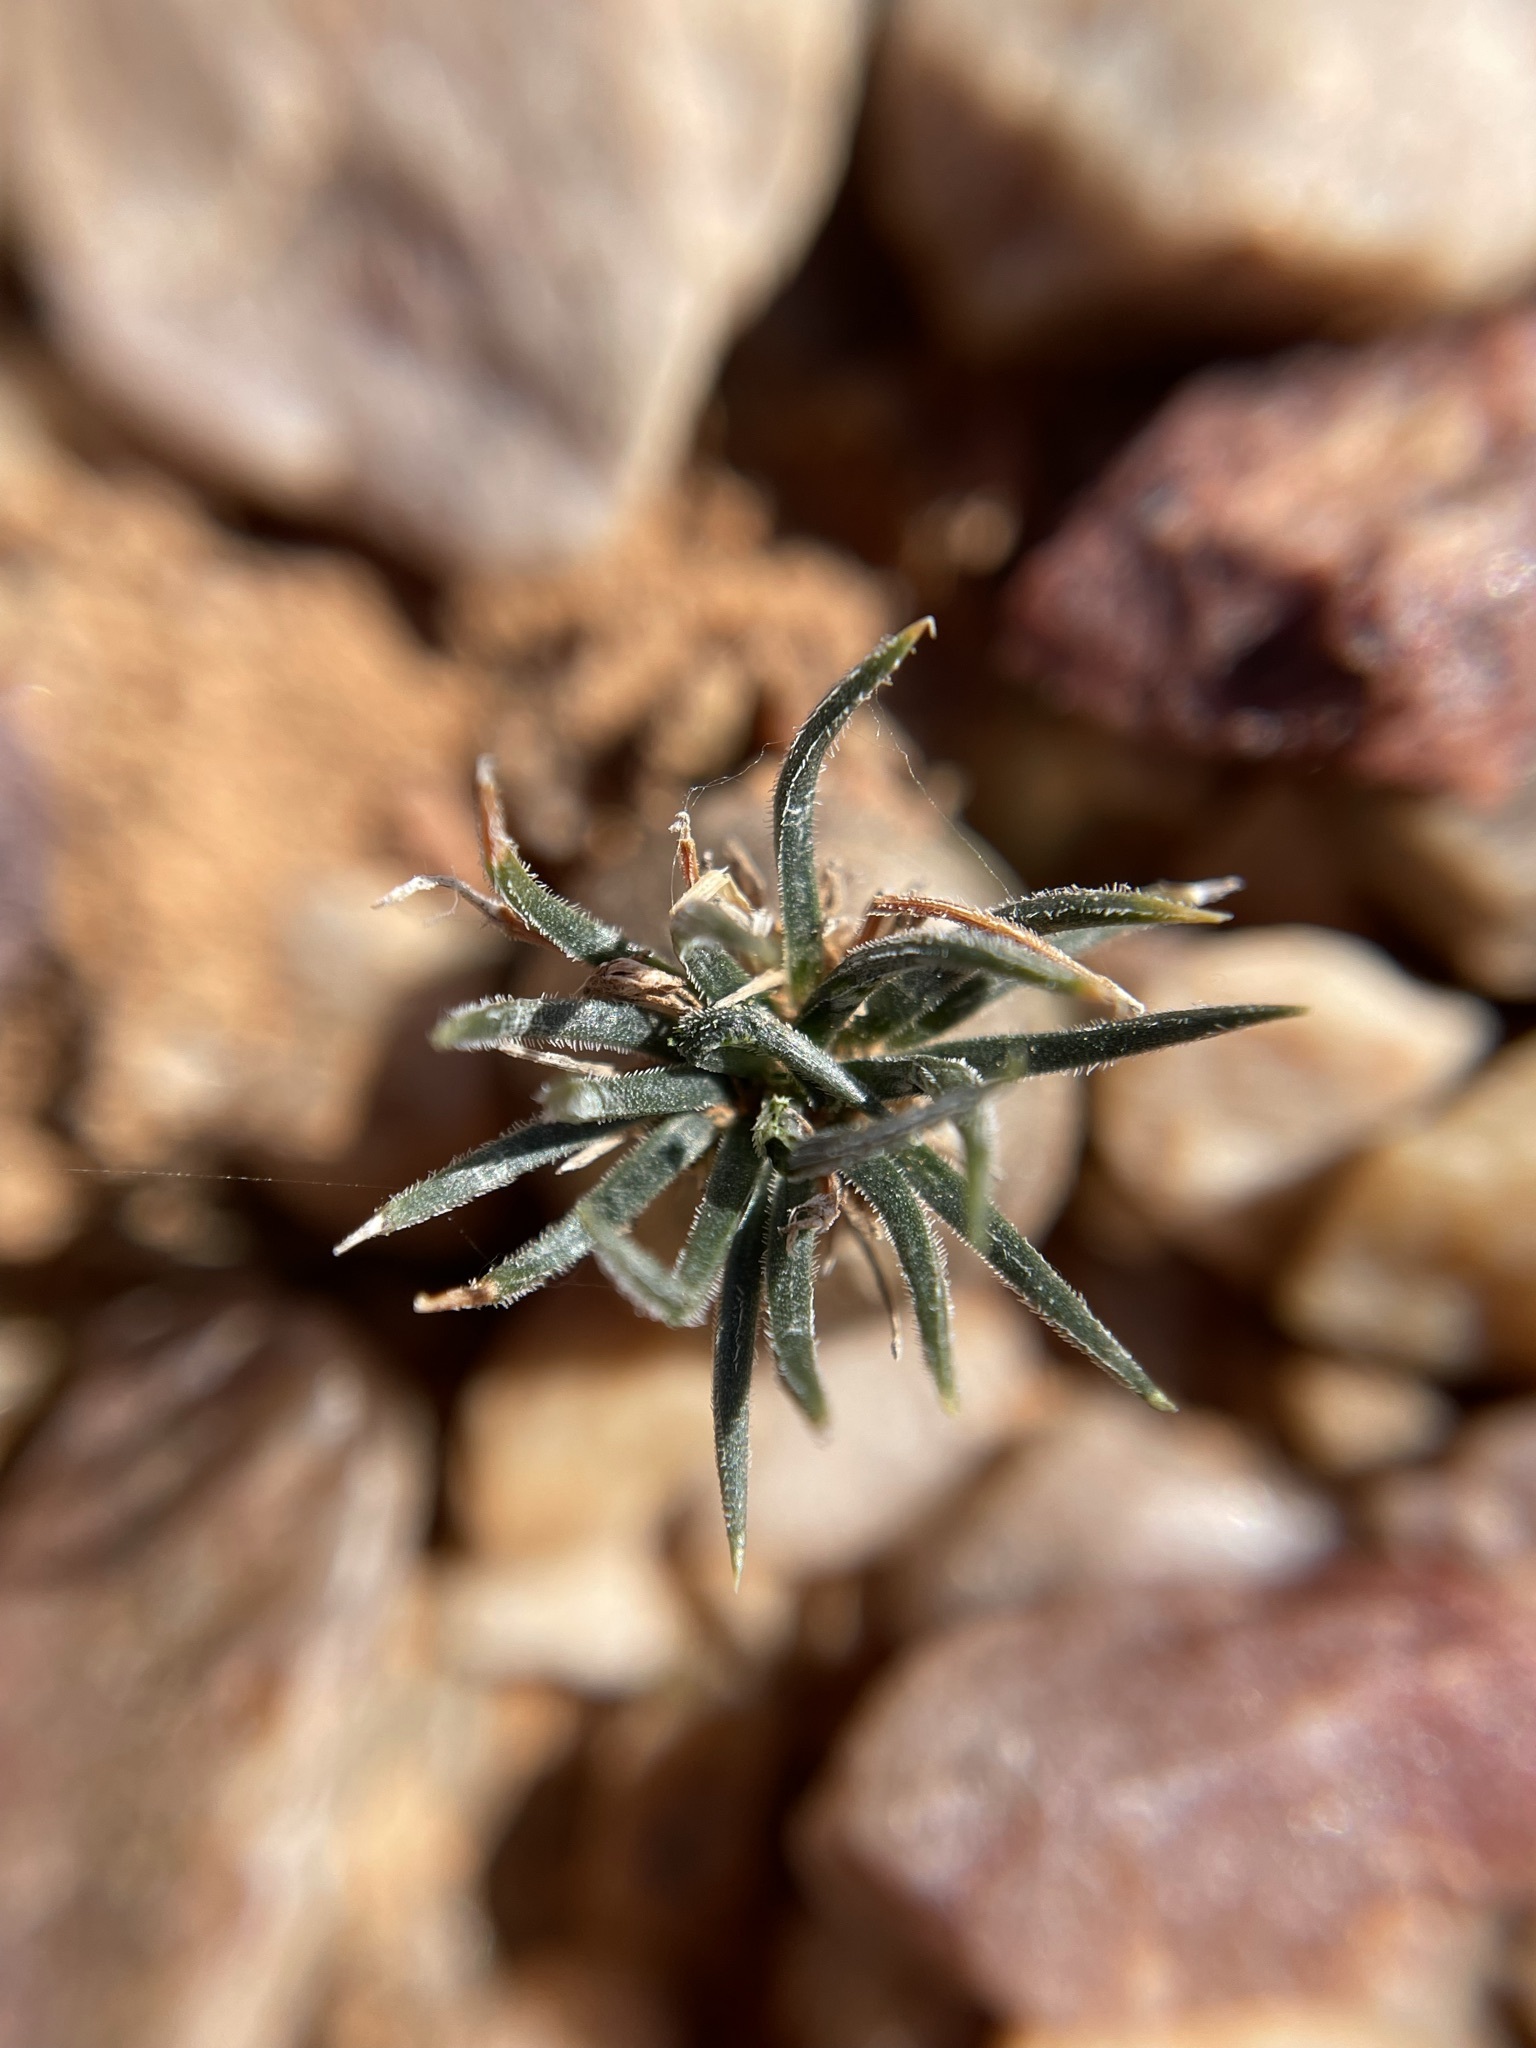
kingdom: Plantae
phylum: Tracheophyta
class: Liliopsida
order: Asparagales
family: Asparagaceae
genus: Ornithogalum
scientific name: Ornithogalum sardienii
